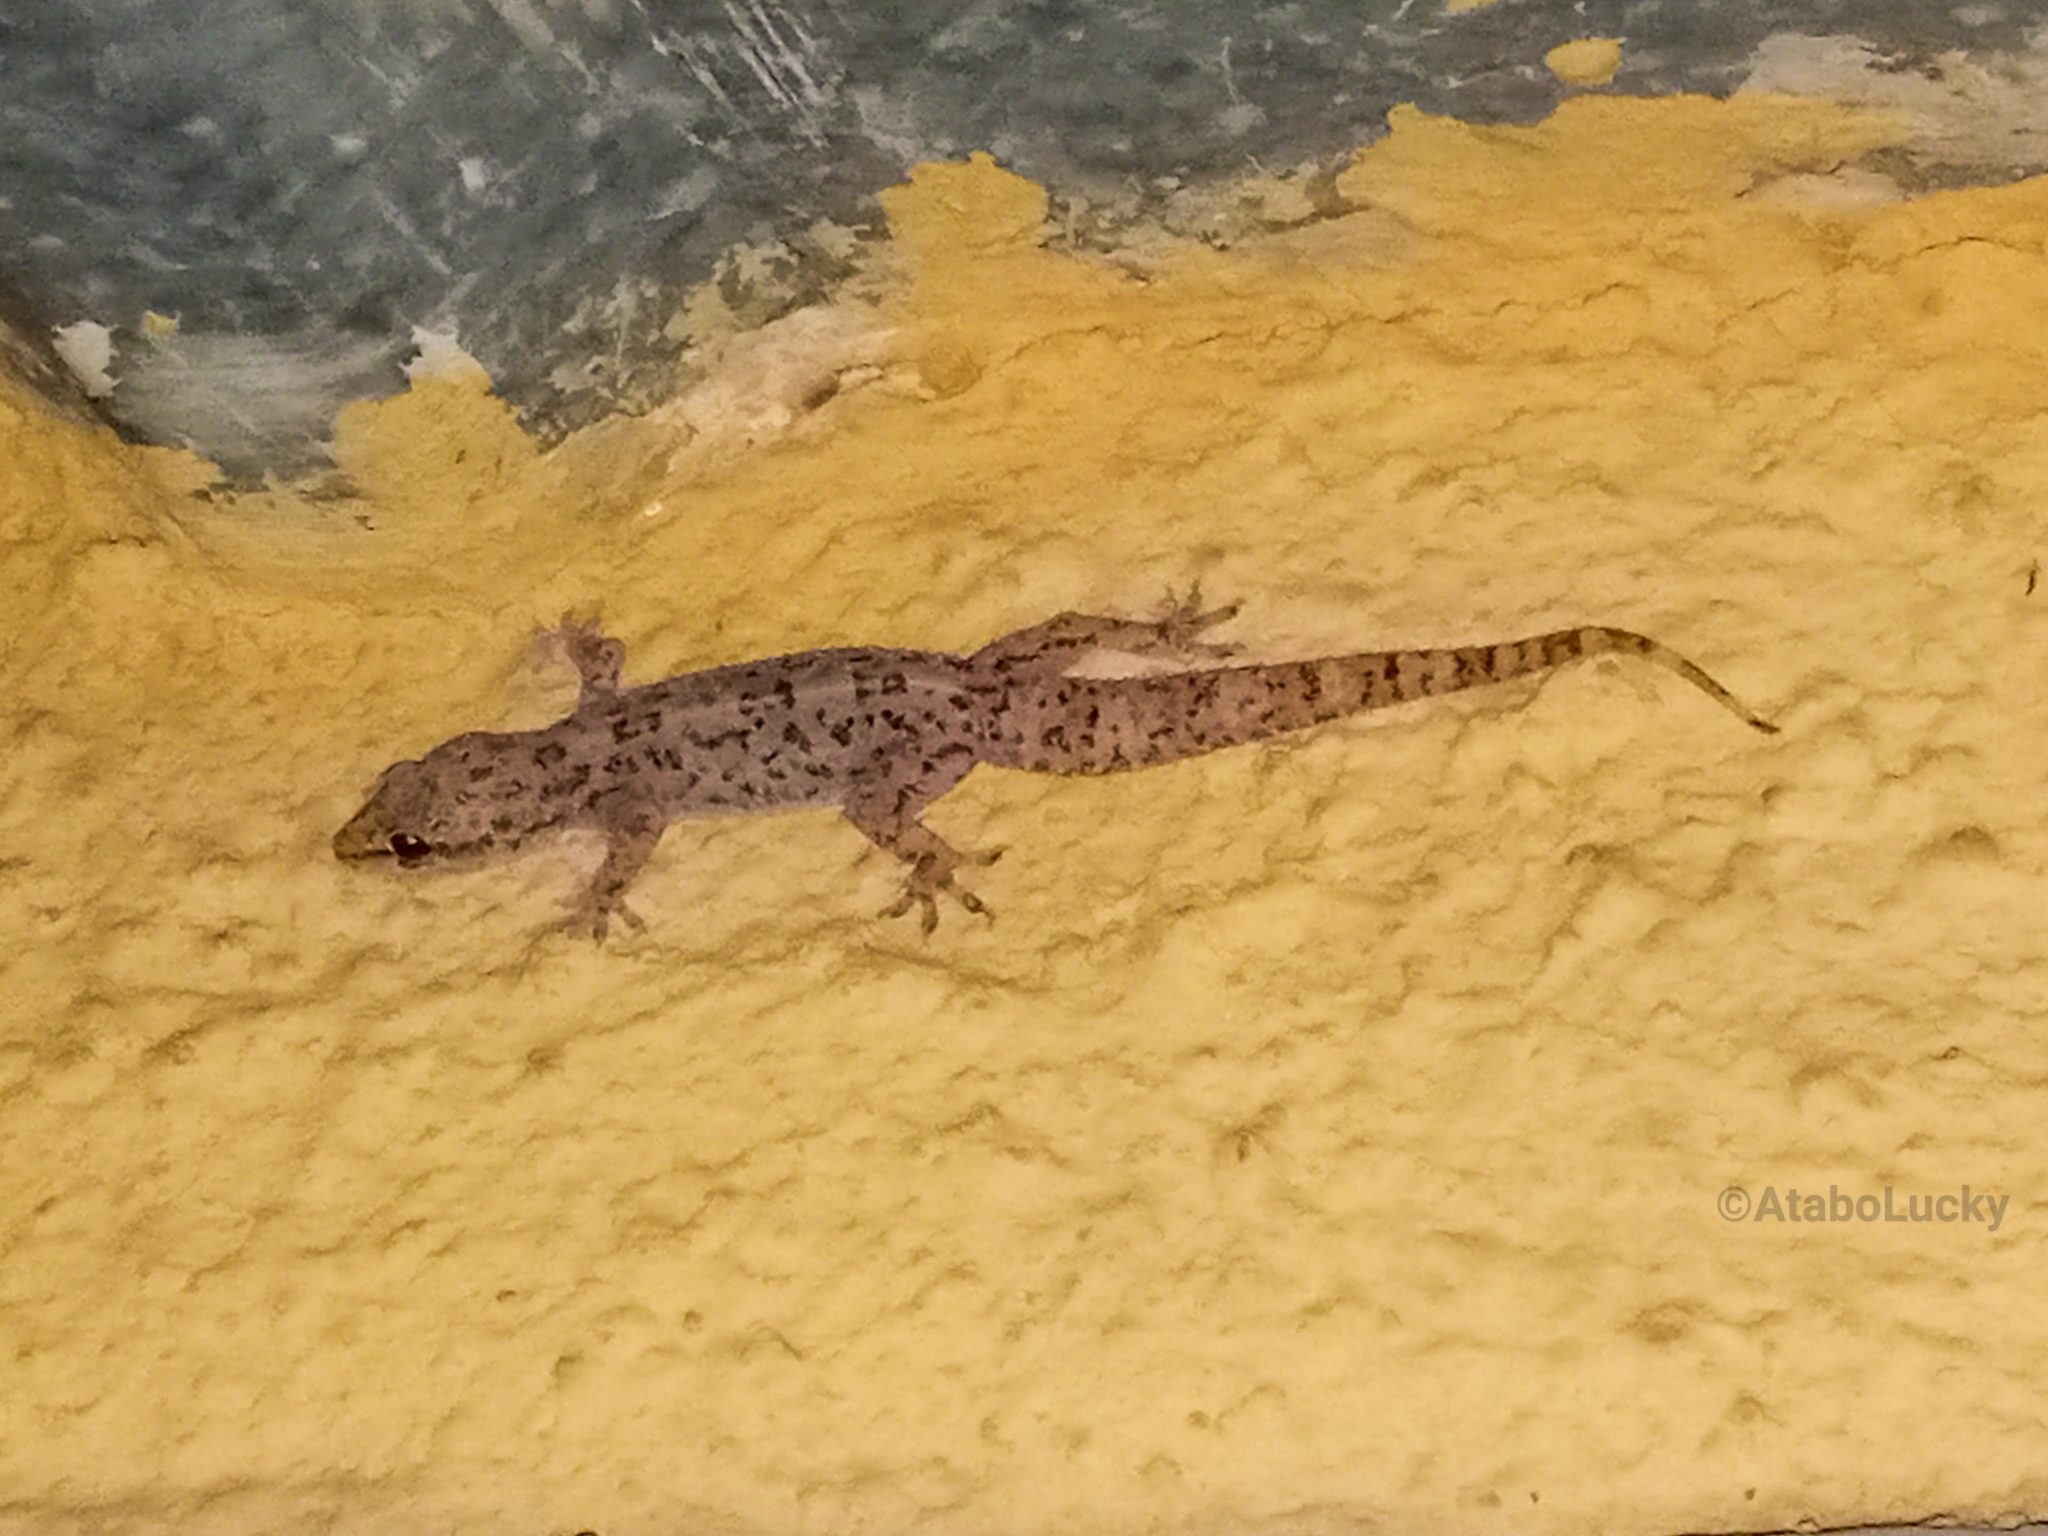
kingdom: Animalia
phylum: Chordata
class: Squamata
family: Gekkonidae
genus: Hemidactylus
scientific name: Hemidactylus angulatus
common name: Brook's house gecko
